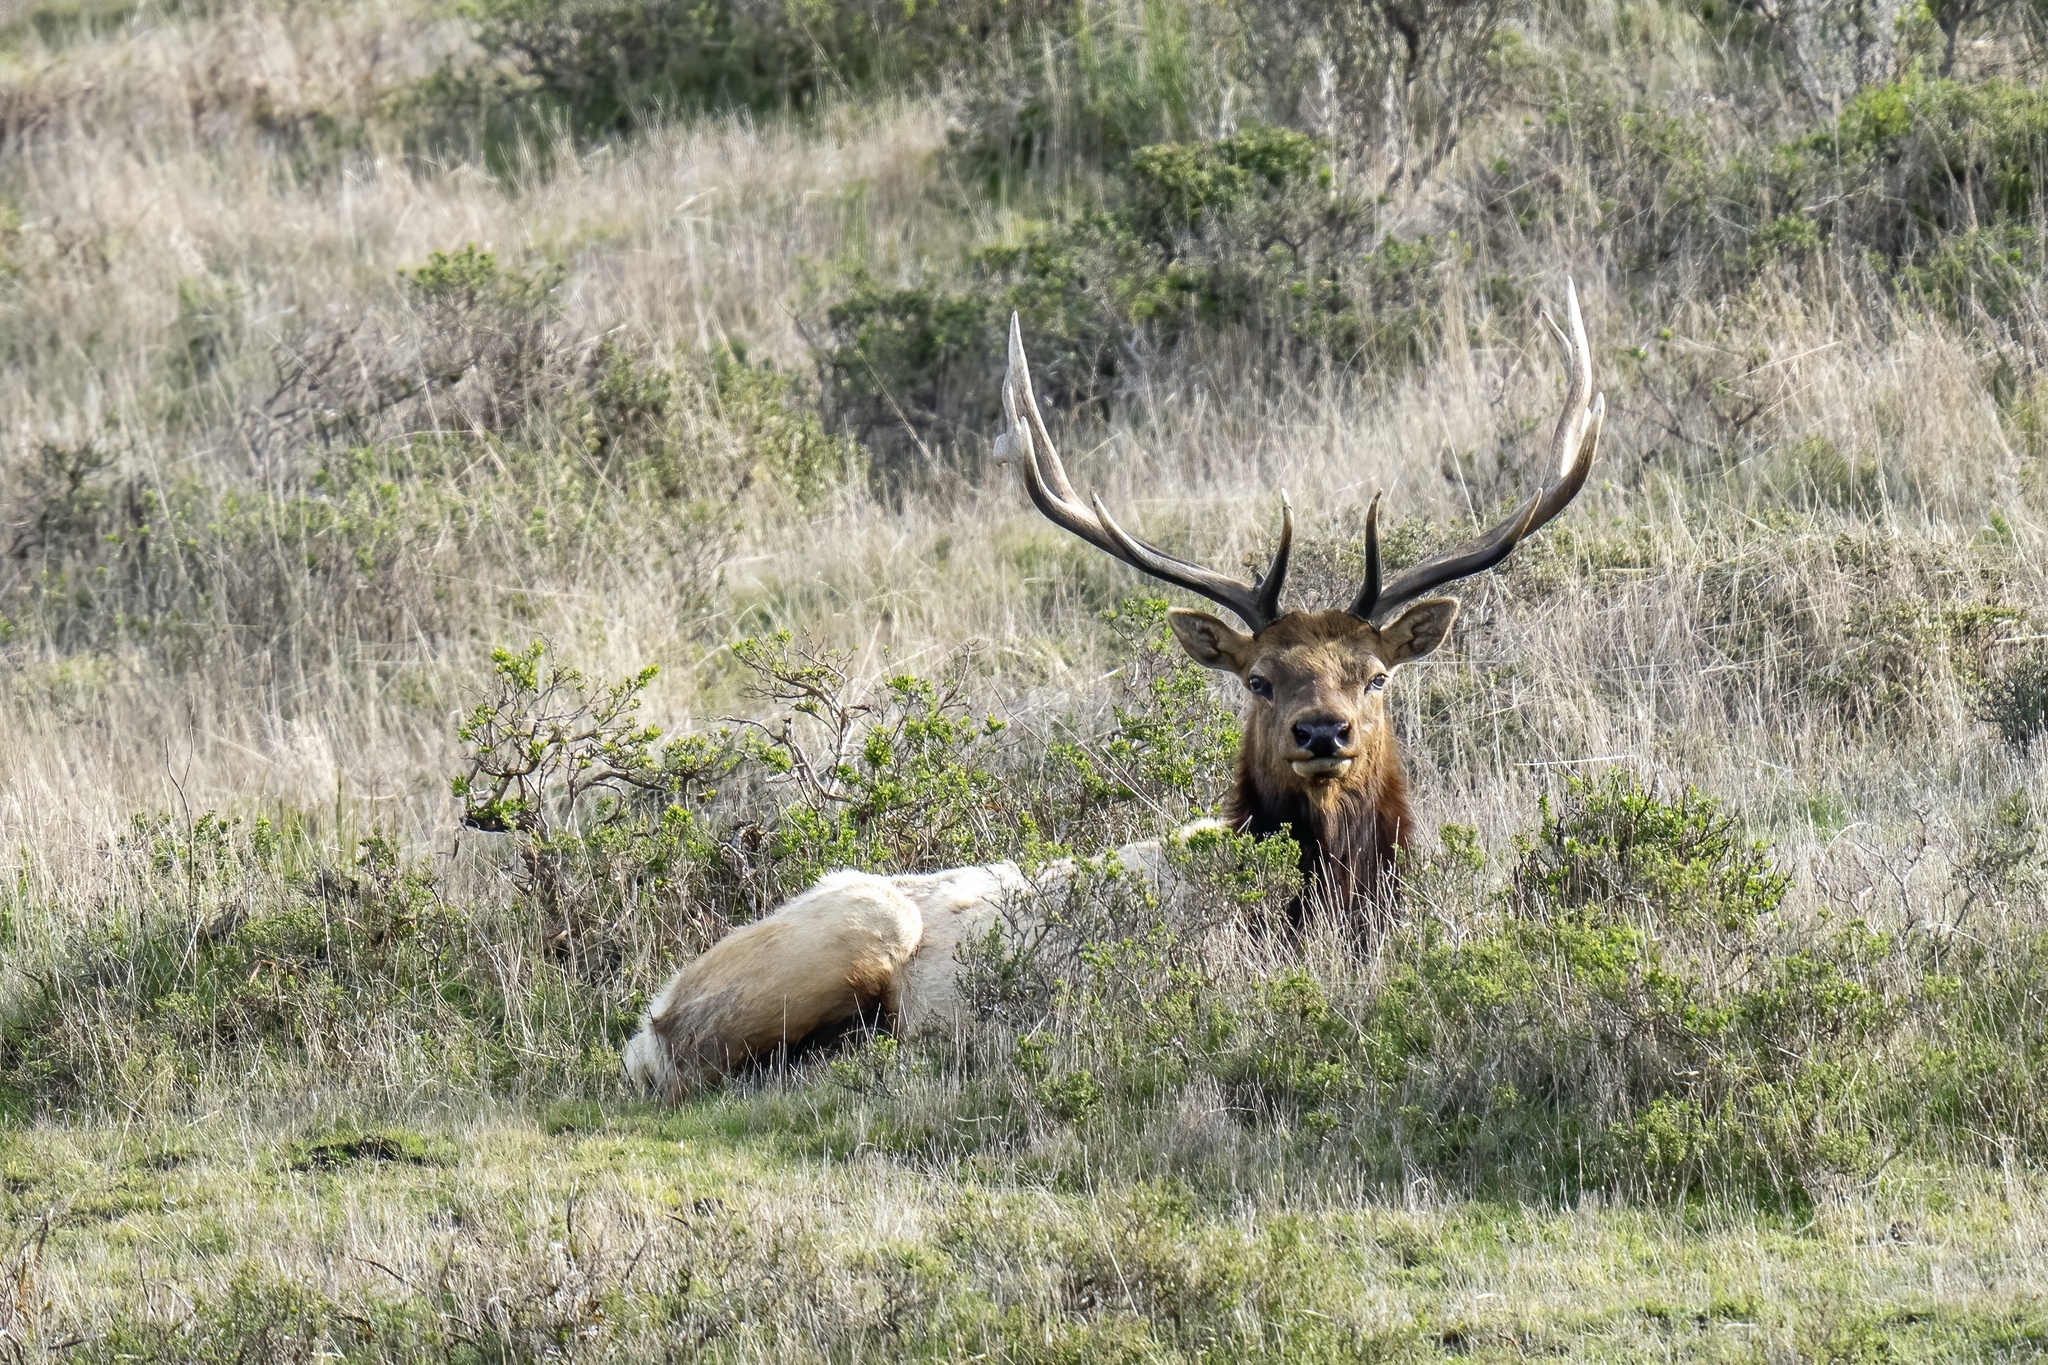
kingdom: Animalia
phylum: Chordata
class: Mammalia
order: Artiodactyla
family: Cervidae
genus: Cervus
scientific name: Cervus elaphus
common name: Red deer
